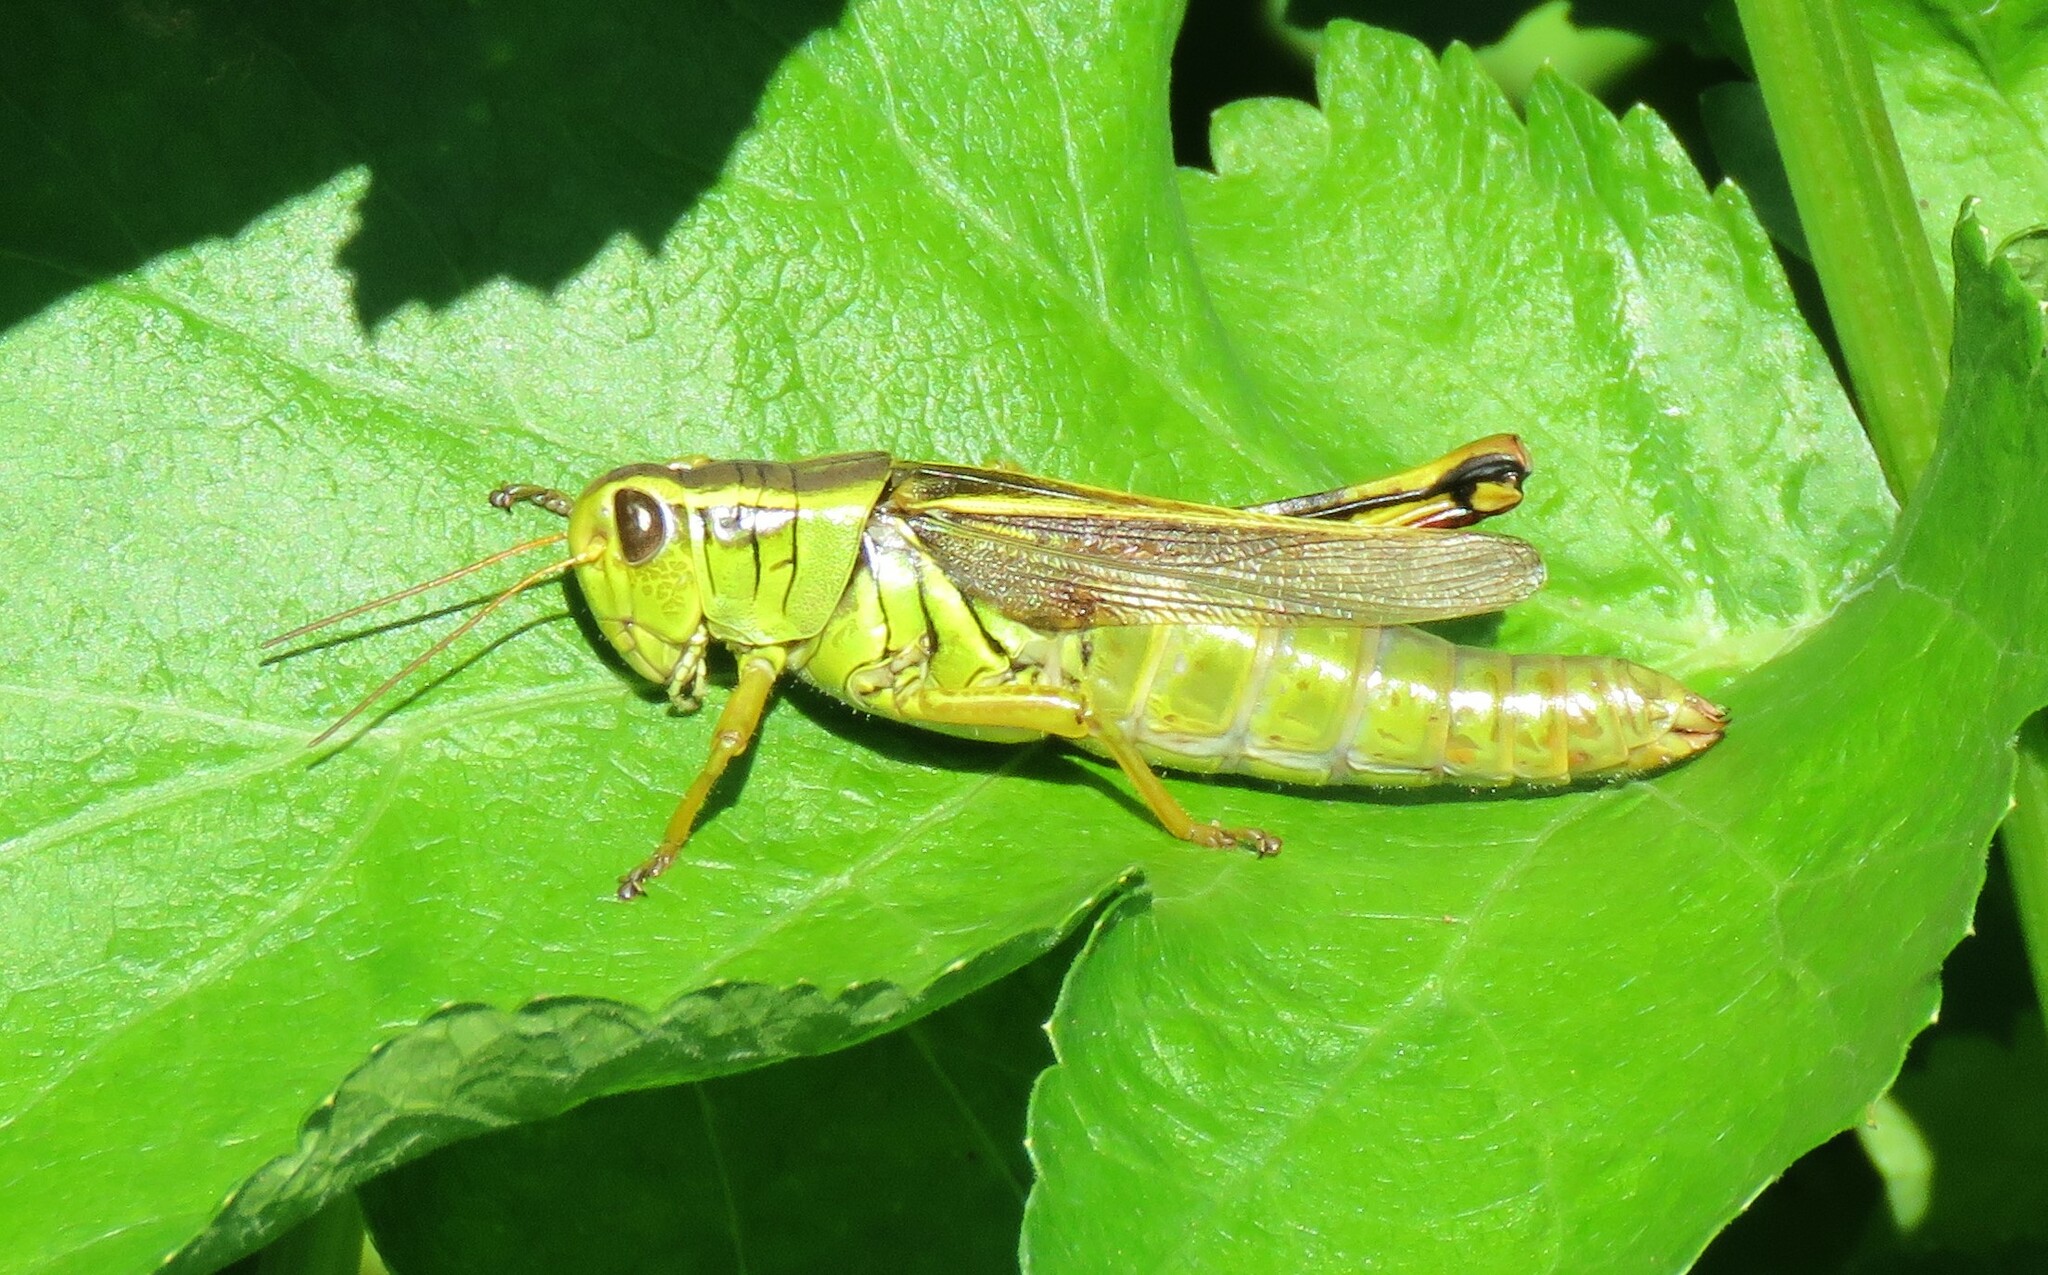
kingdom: Animalia
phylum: Arthropoda
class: Insecta
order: Orthoptera
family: Acrididae
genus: Melanoplus
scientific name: Melanoplus bivittatus
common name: Two-striped grasshopper
